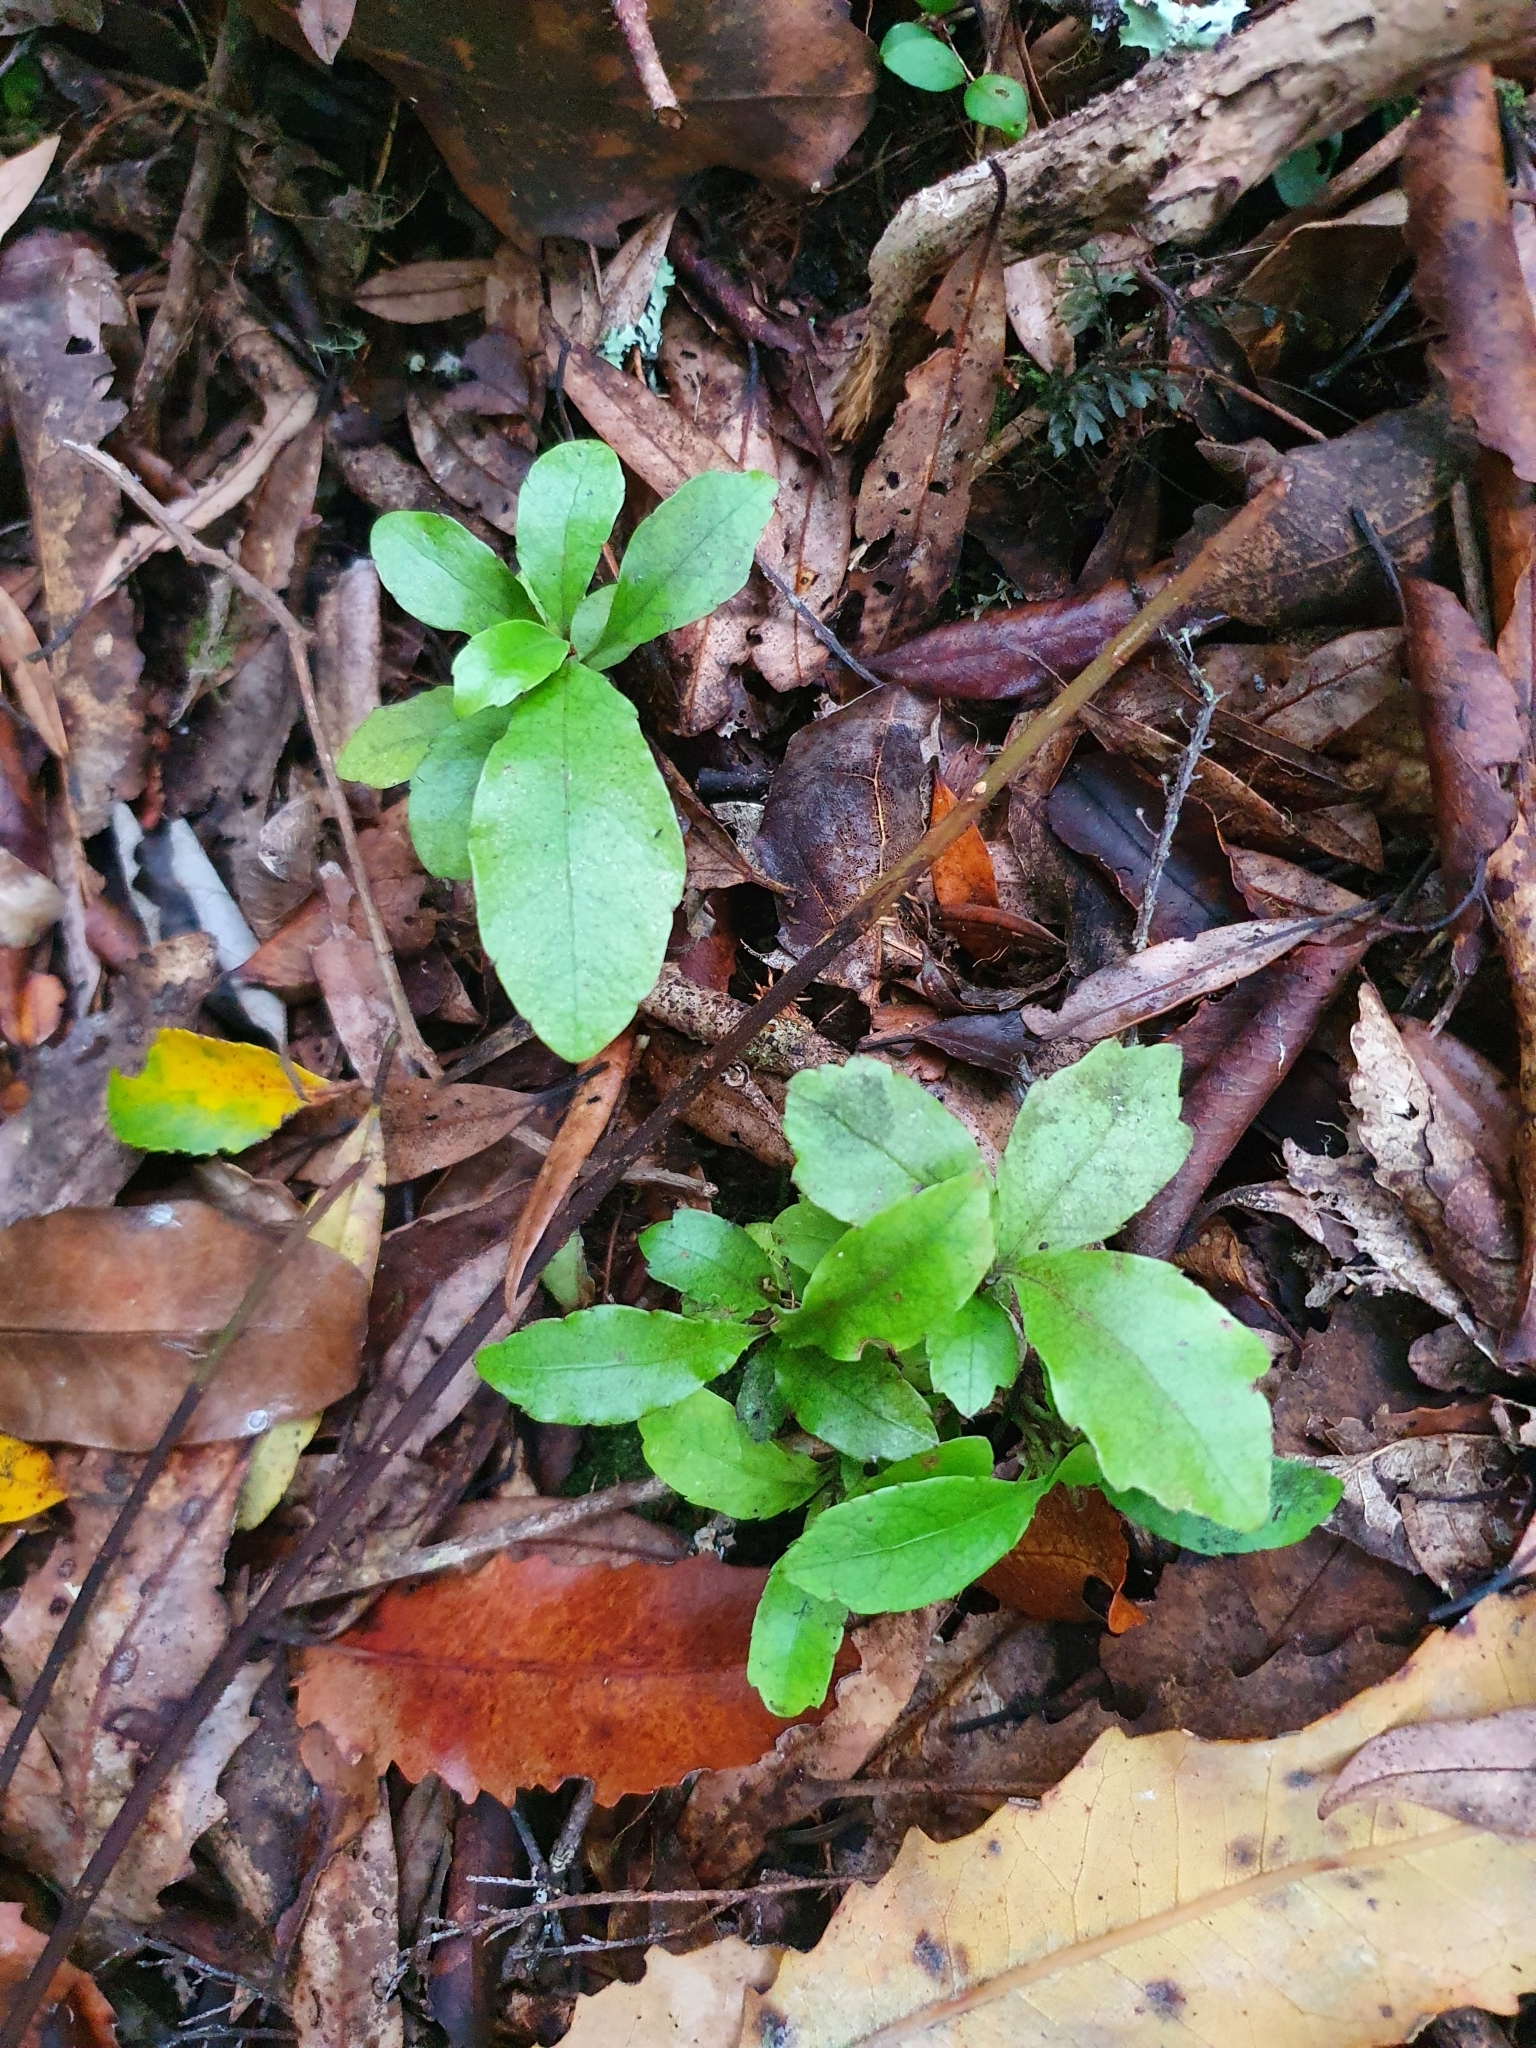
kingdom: Plantae
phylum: Tracheophyta
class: Magnoliopsida
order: Asterales
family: Alseuosmiaceae
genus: Alseuosmia
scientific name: Alseuosmia macrophylla
